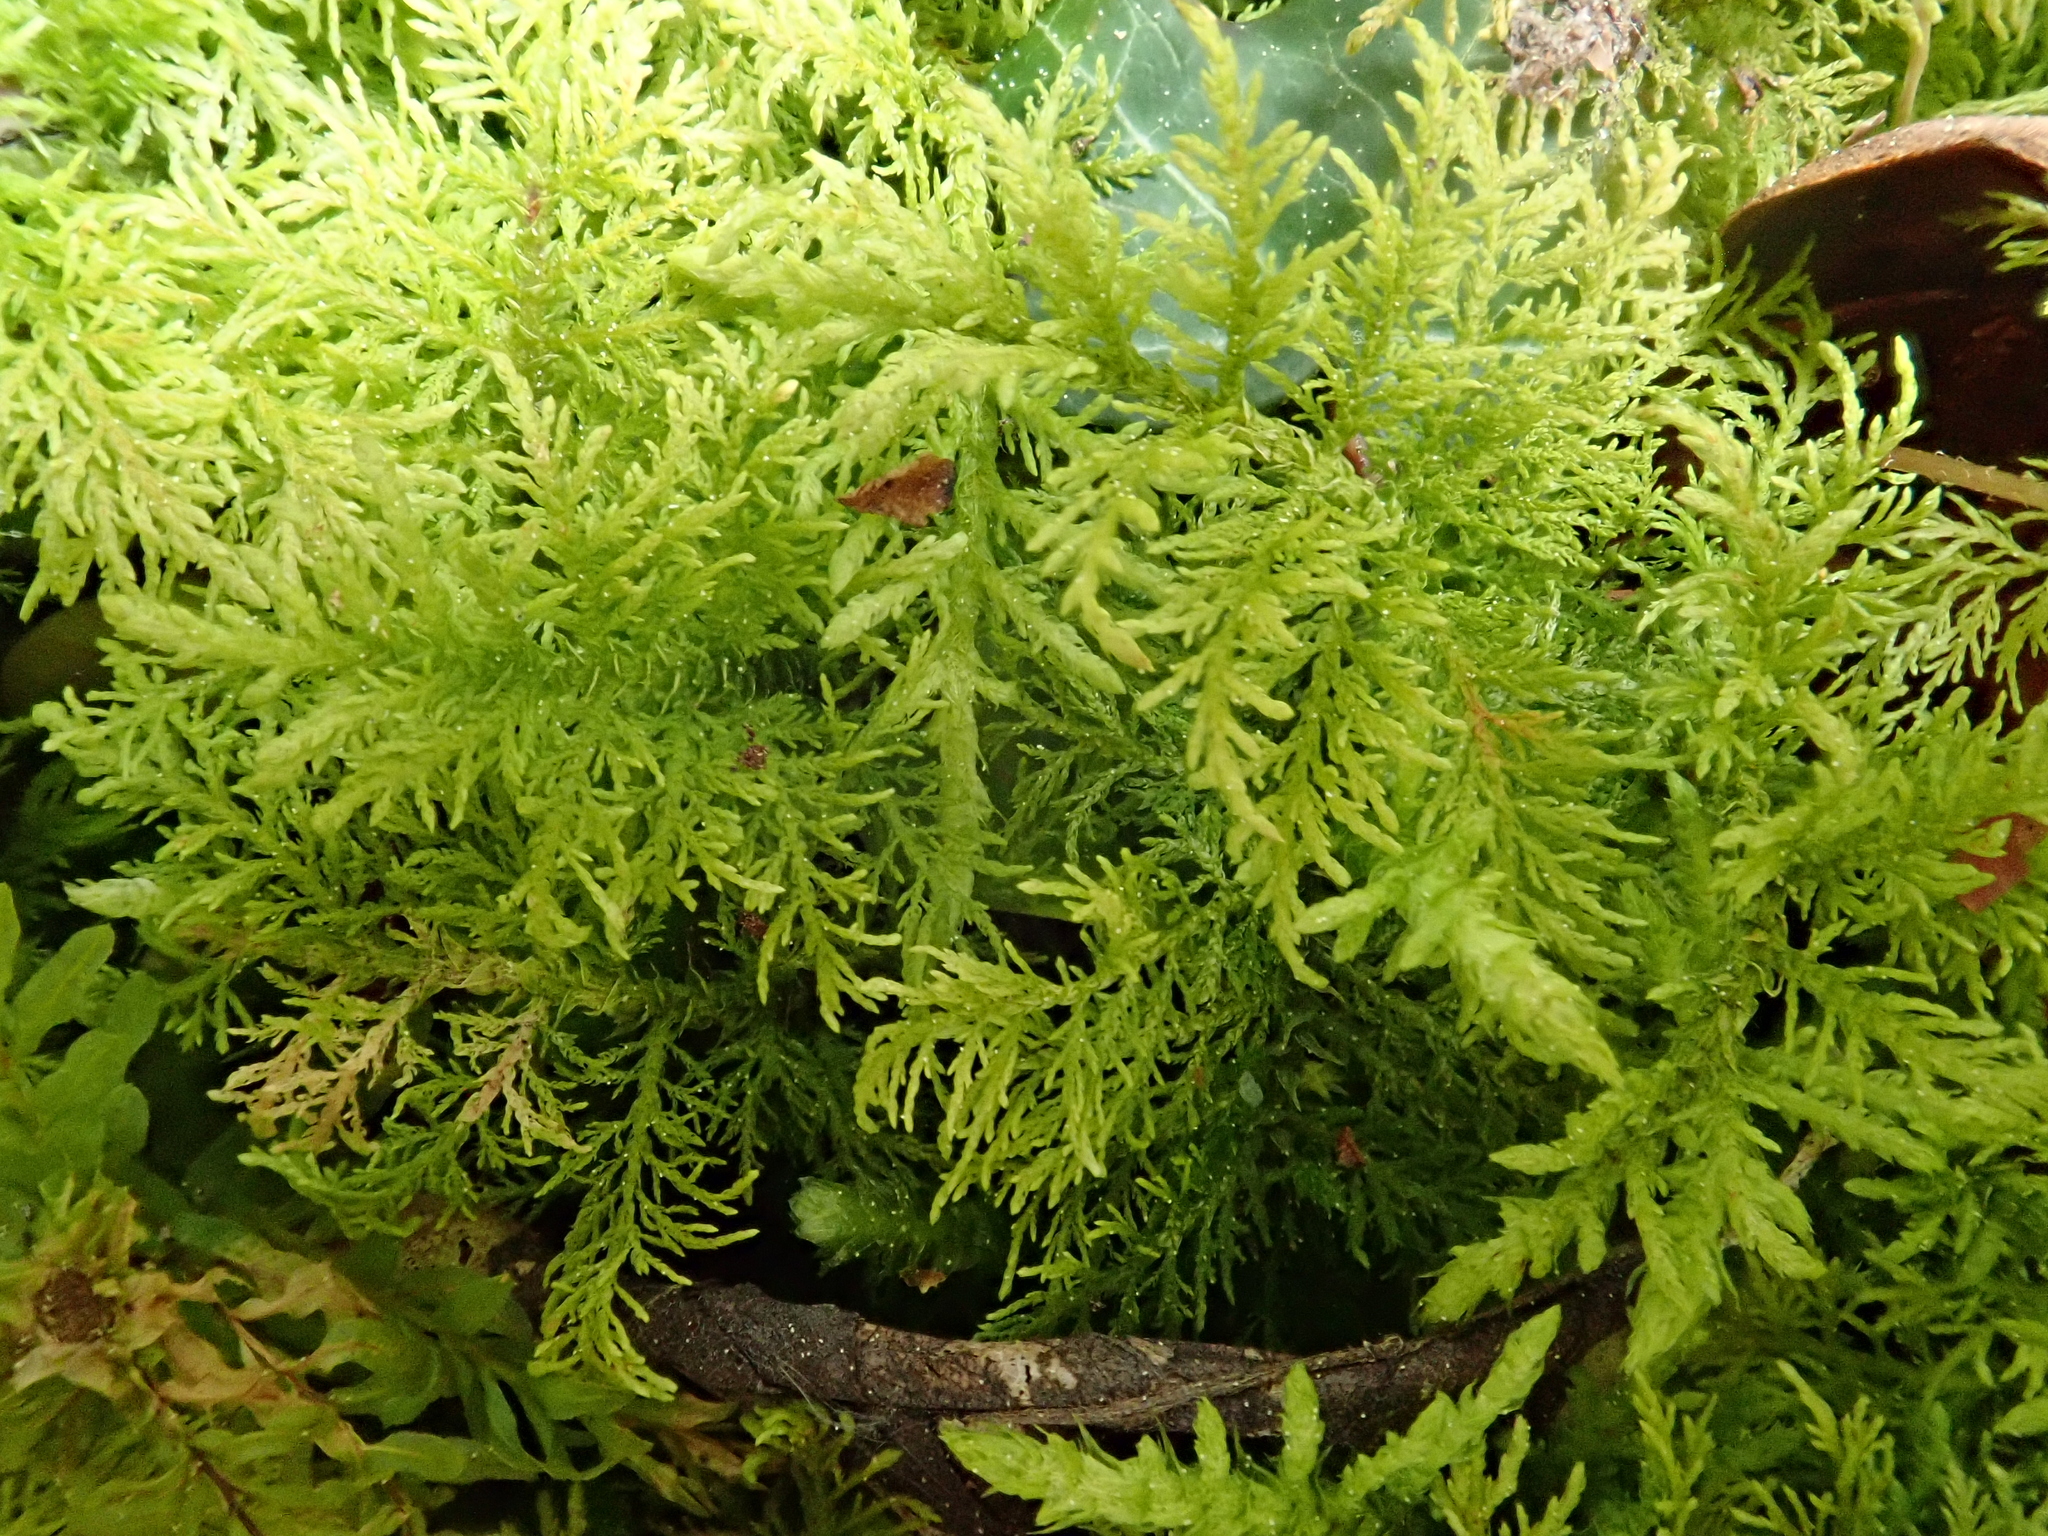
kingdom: Plantae
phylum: Bryophyta
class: Bryopsida
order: Hypnales
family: Thuidiaceae
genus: Thuidium
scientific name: Thuidium tamariscinum
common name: Common tamarisk-moss
